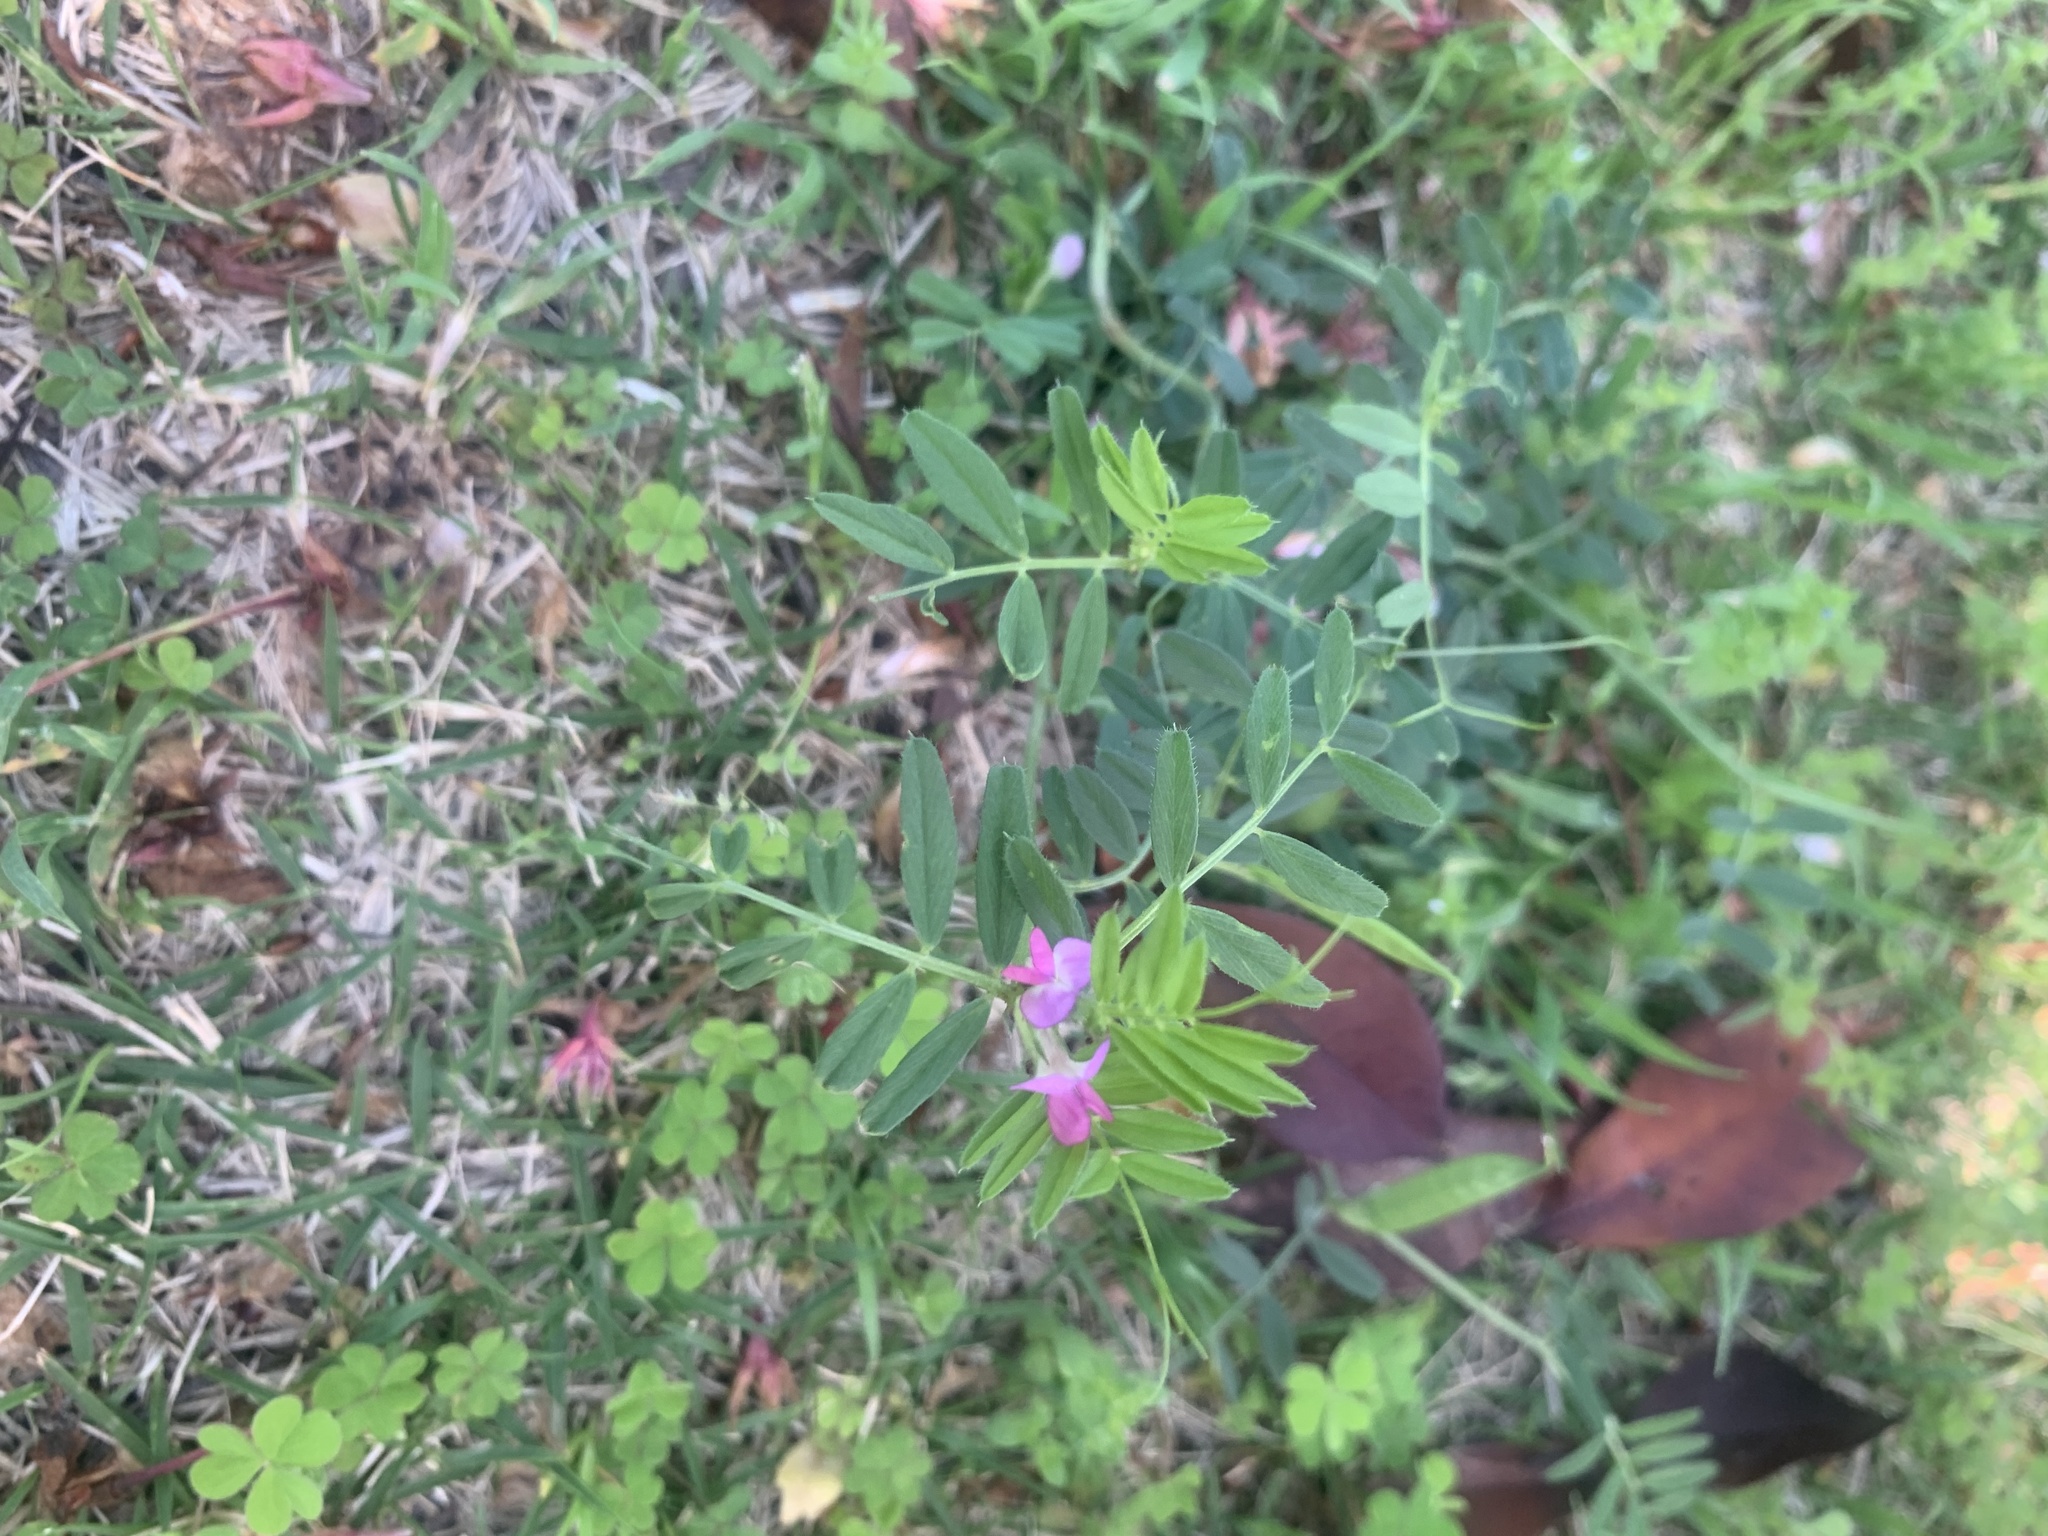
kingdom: Plantae
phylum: Tracheophyta
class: Magnoliopsida
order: Fabales
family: Fabaceae
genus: Vicia
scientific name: Vicia sativa
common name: Garden vetch
